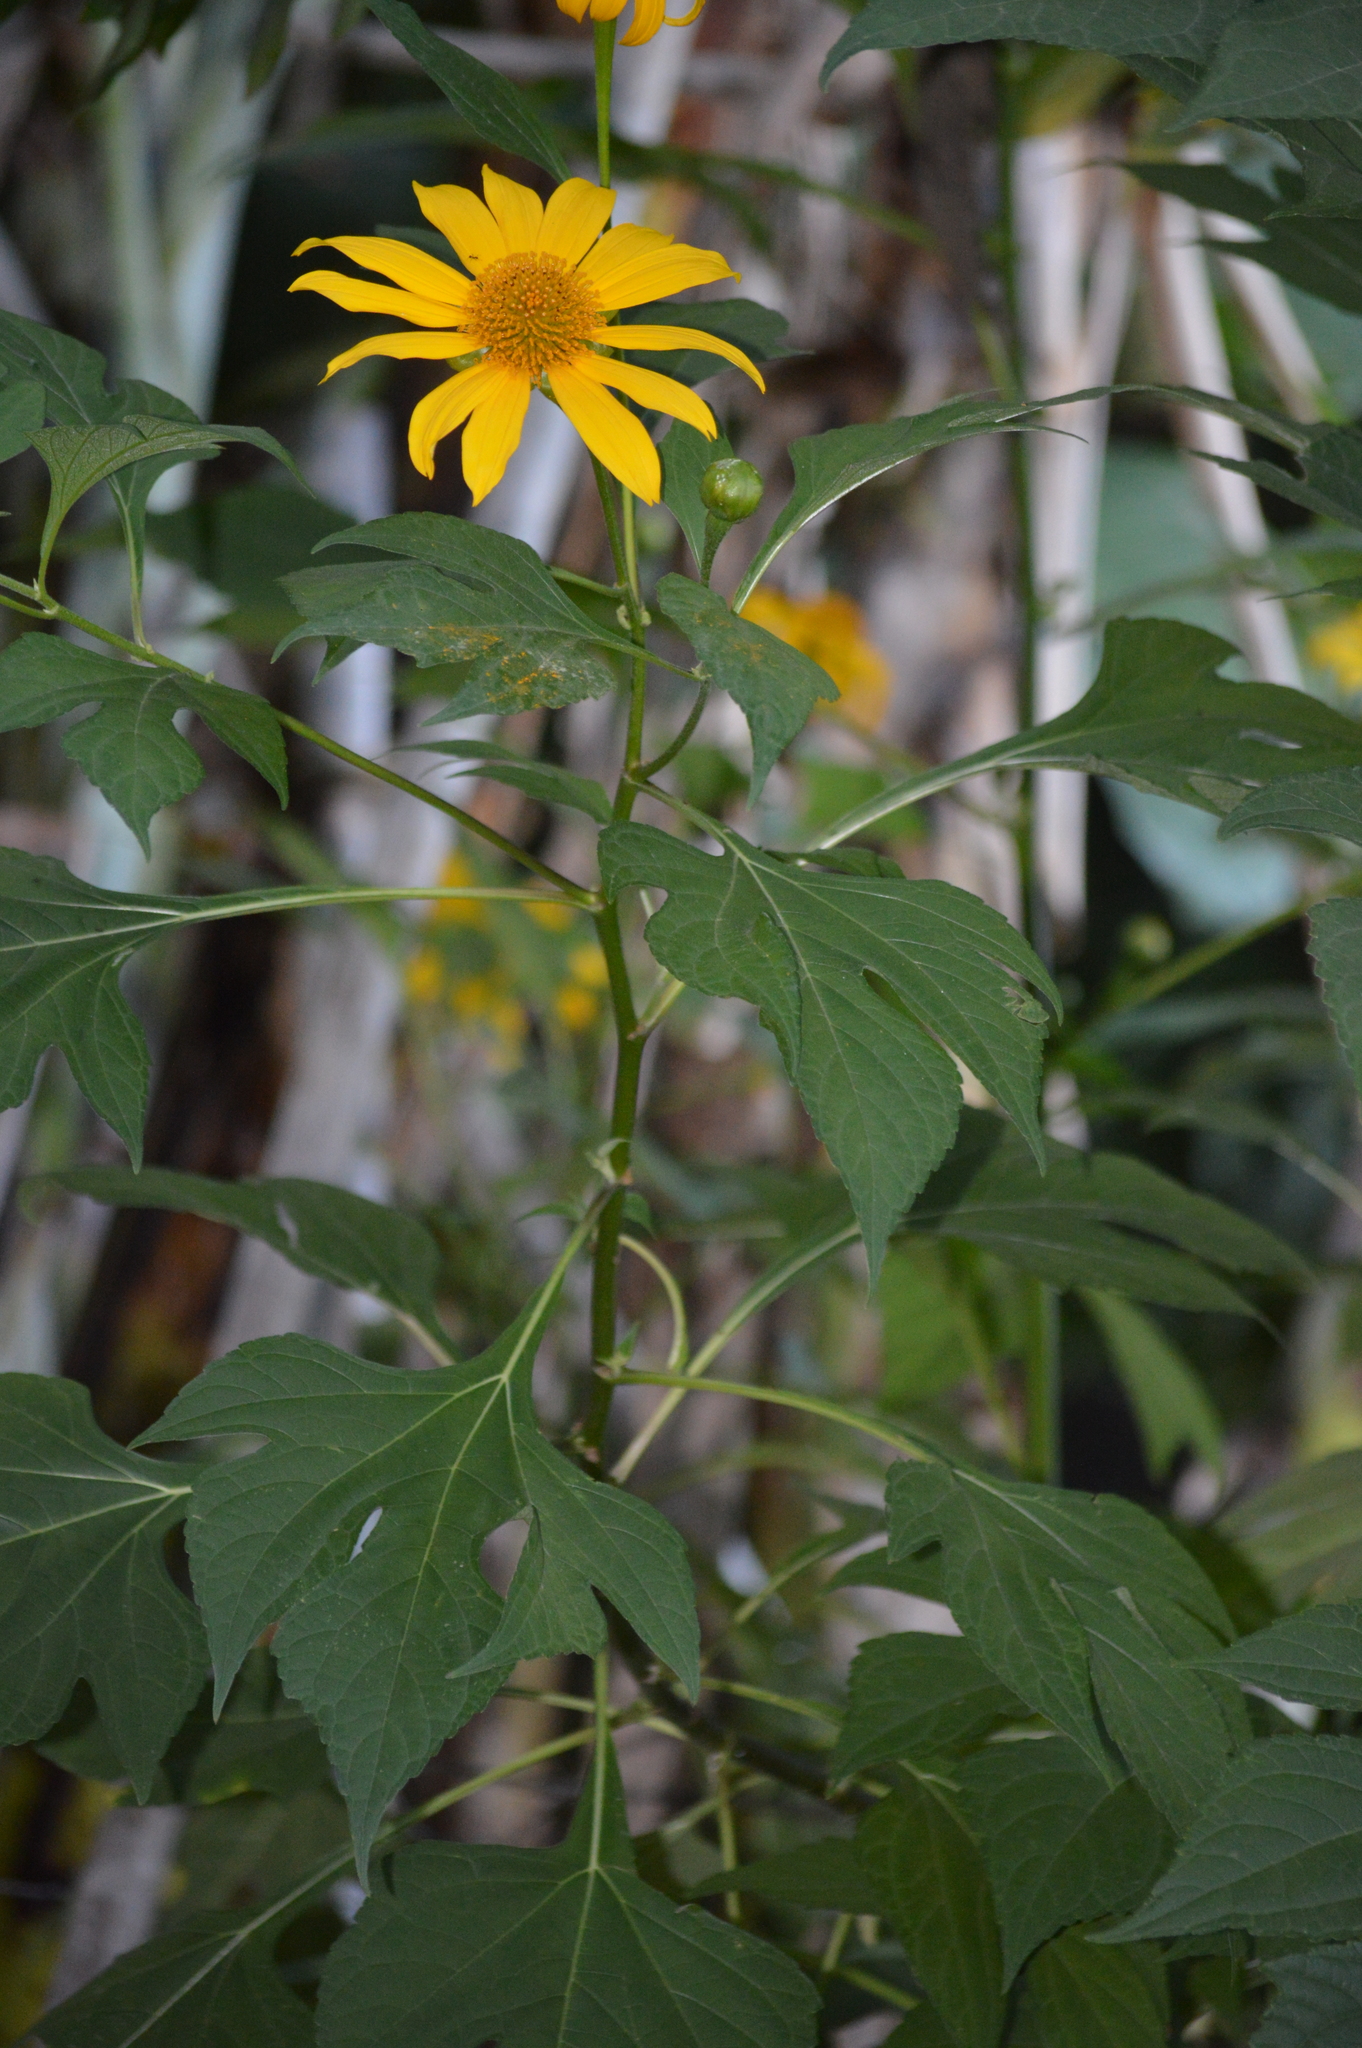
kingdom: Plantae
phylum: Tracheophyta
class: Magnoliopsida
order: Asterales
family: Asteraceae
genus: Tithonia
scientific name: Tithonia diversifolia
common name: Tree marigold
